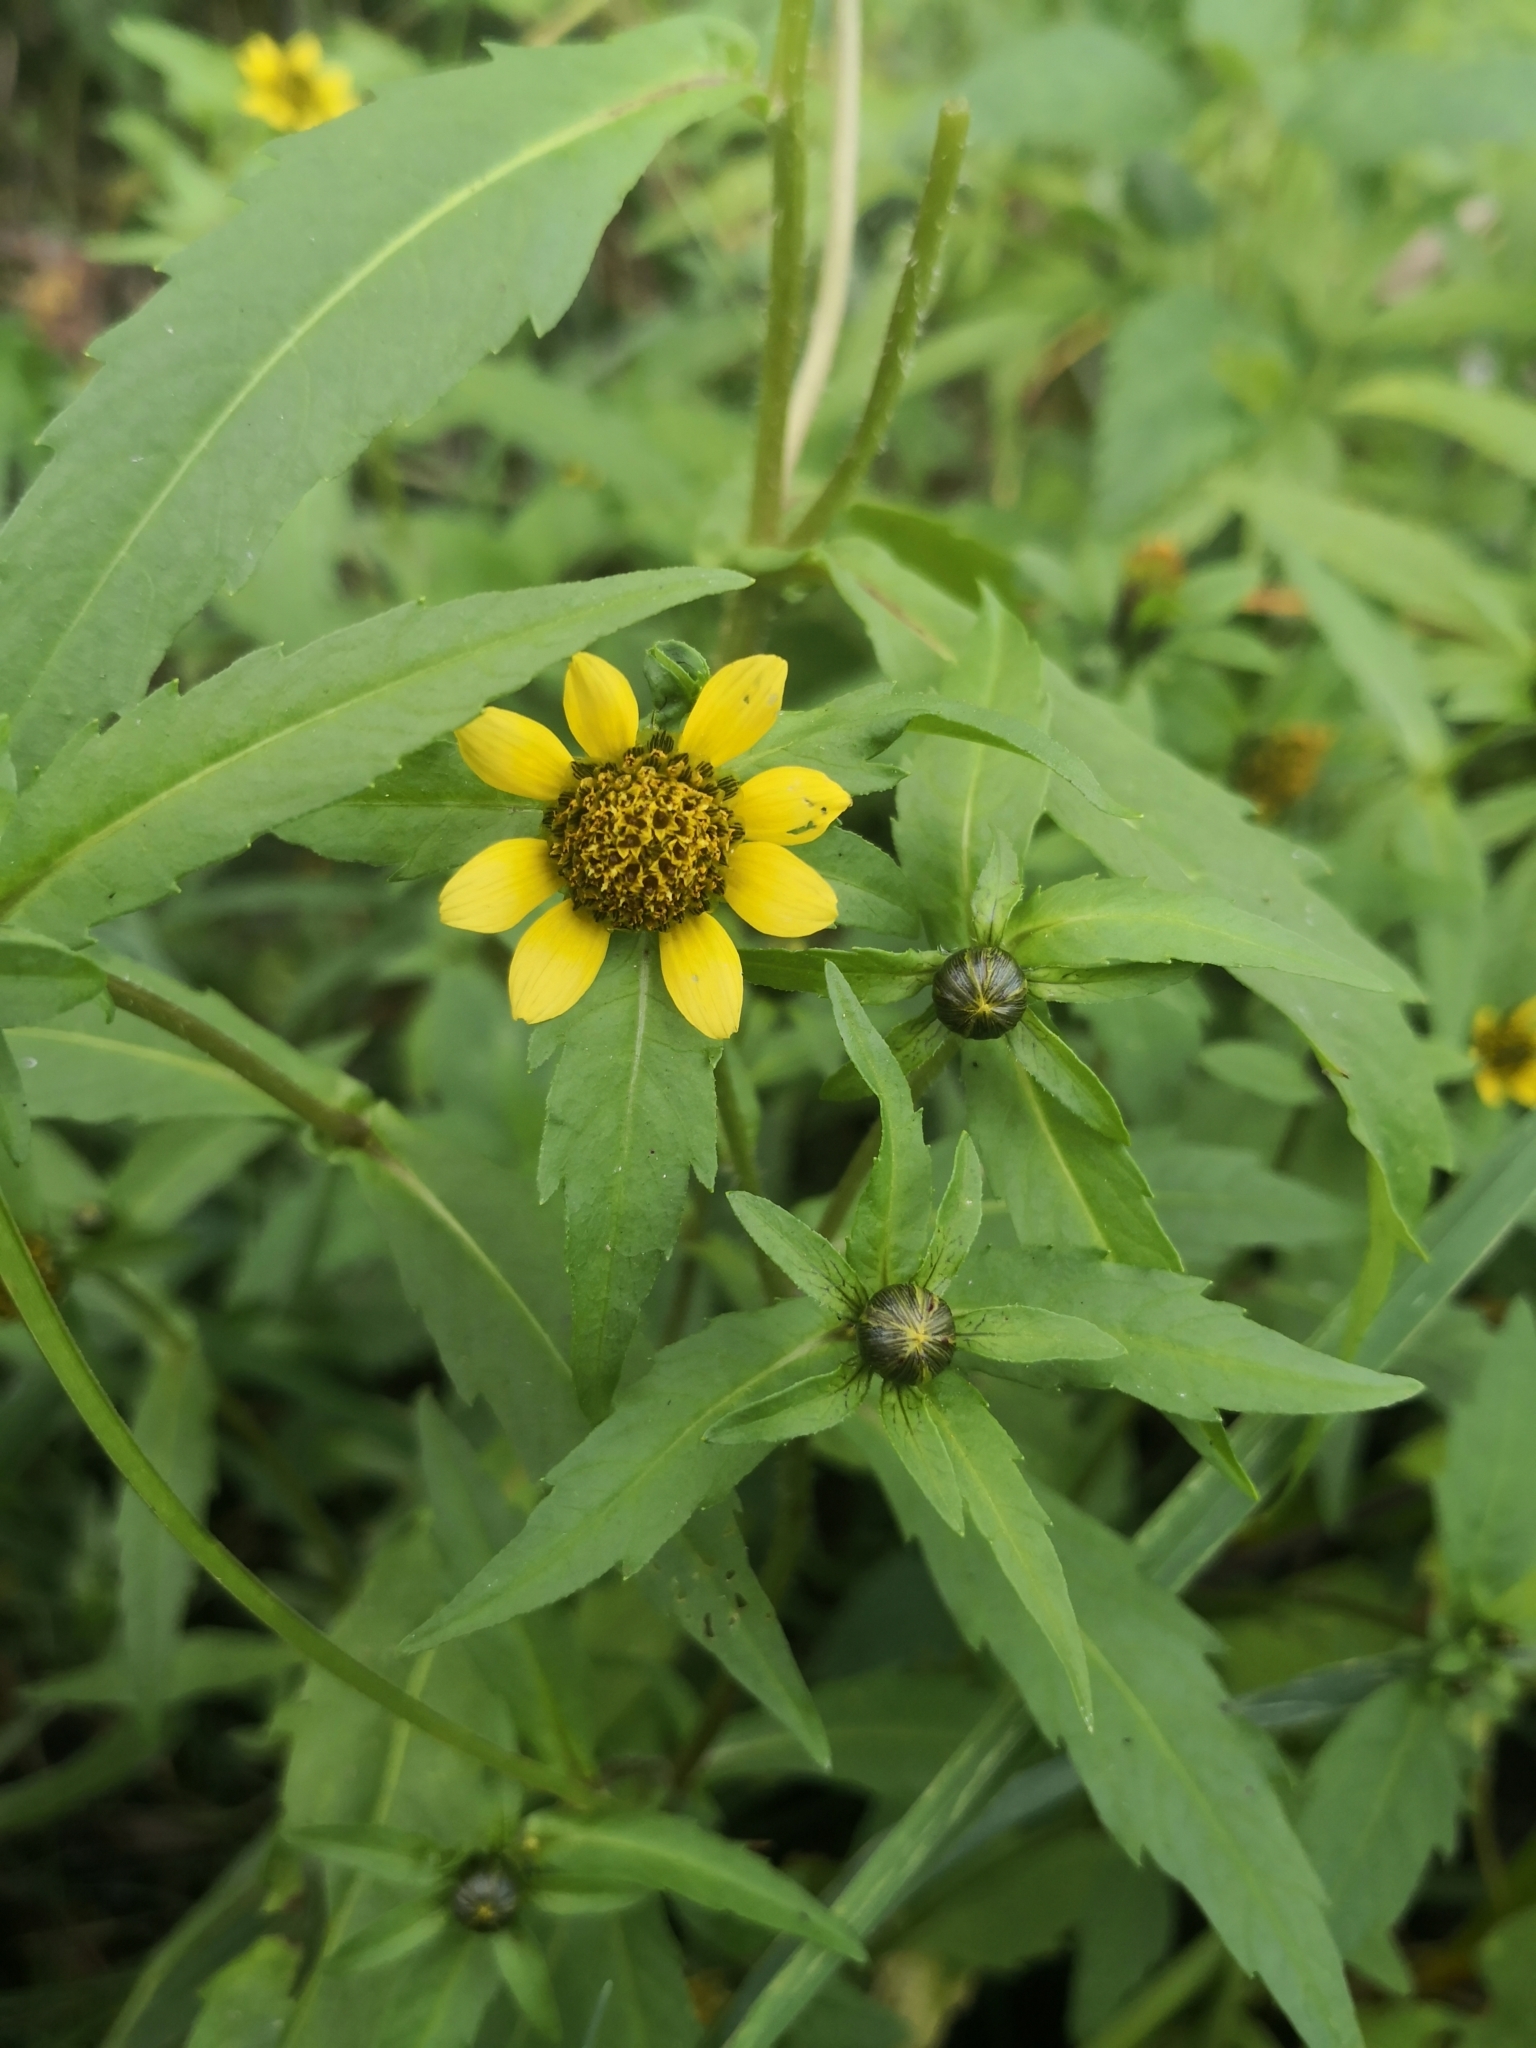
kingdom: Plantae
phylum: Tracheophyta
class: Magnoliopsida
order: Asterales
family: Asteraceae
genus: Bidens
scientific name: Bidens cernua
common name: Nodding bur-marigold
